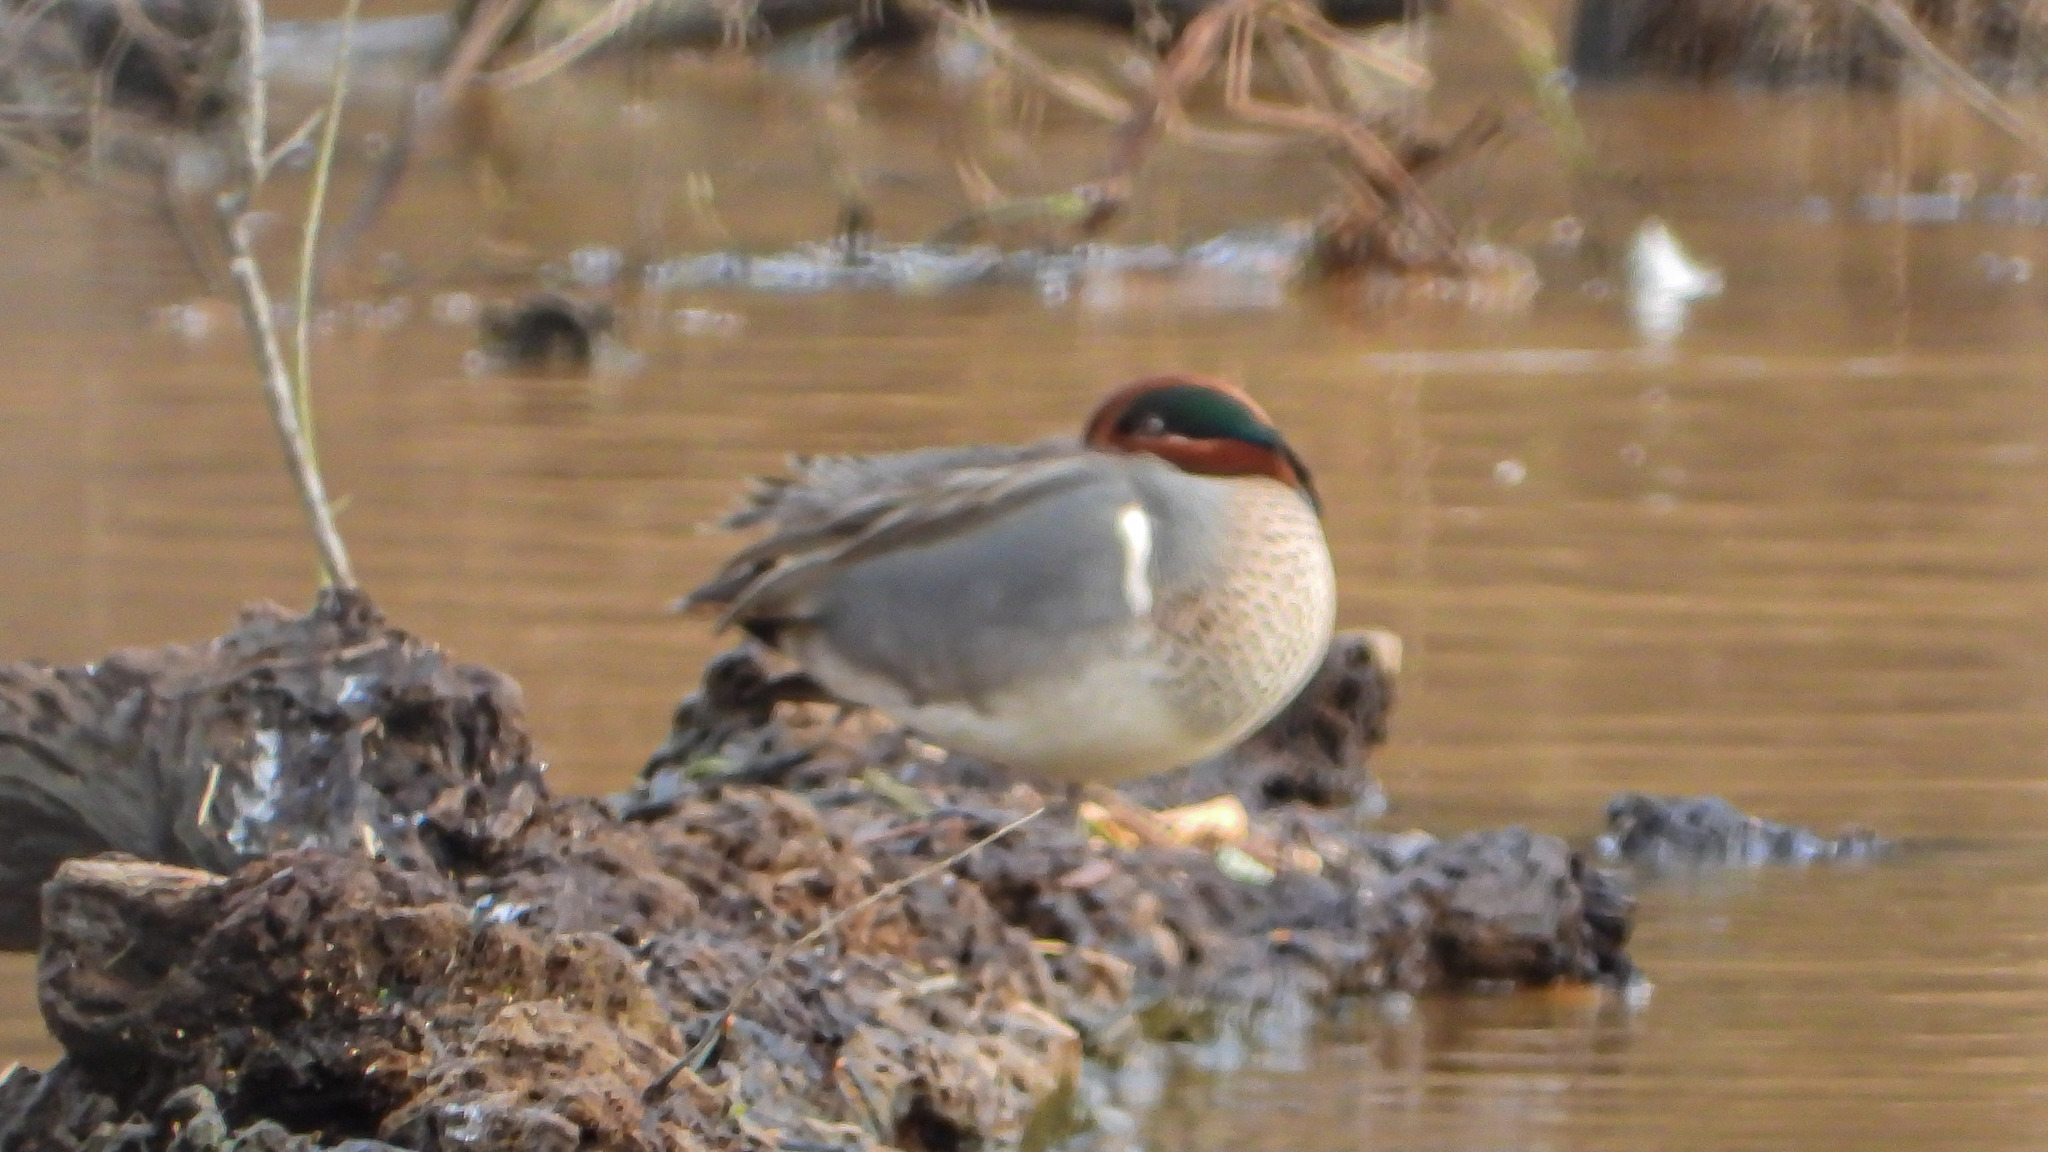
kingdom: Animalia
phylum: Chordata
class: Aves
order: Anseriformes
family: Anatidae
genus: Anas
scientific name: Anas crecca
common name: Eurasian teal
